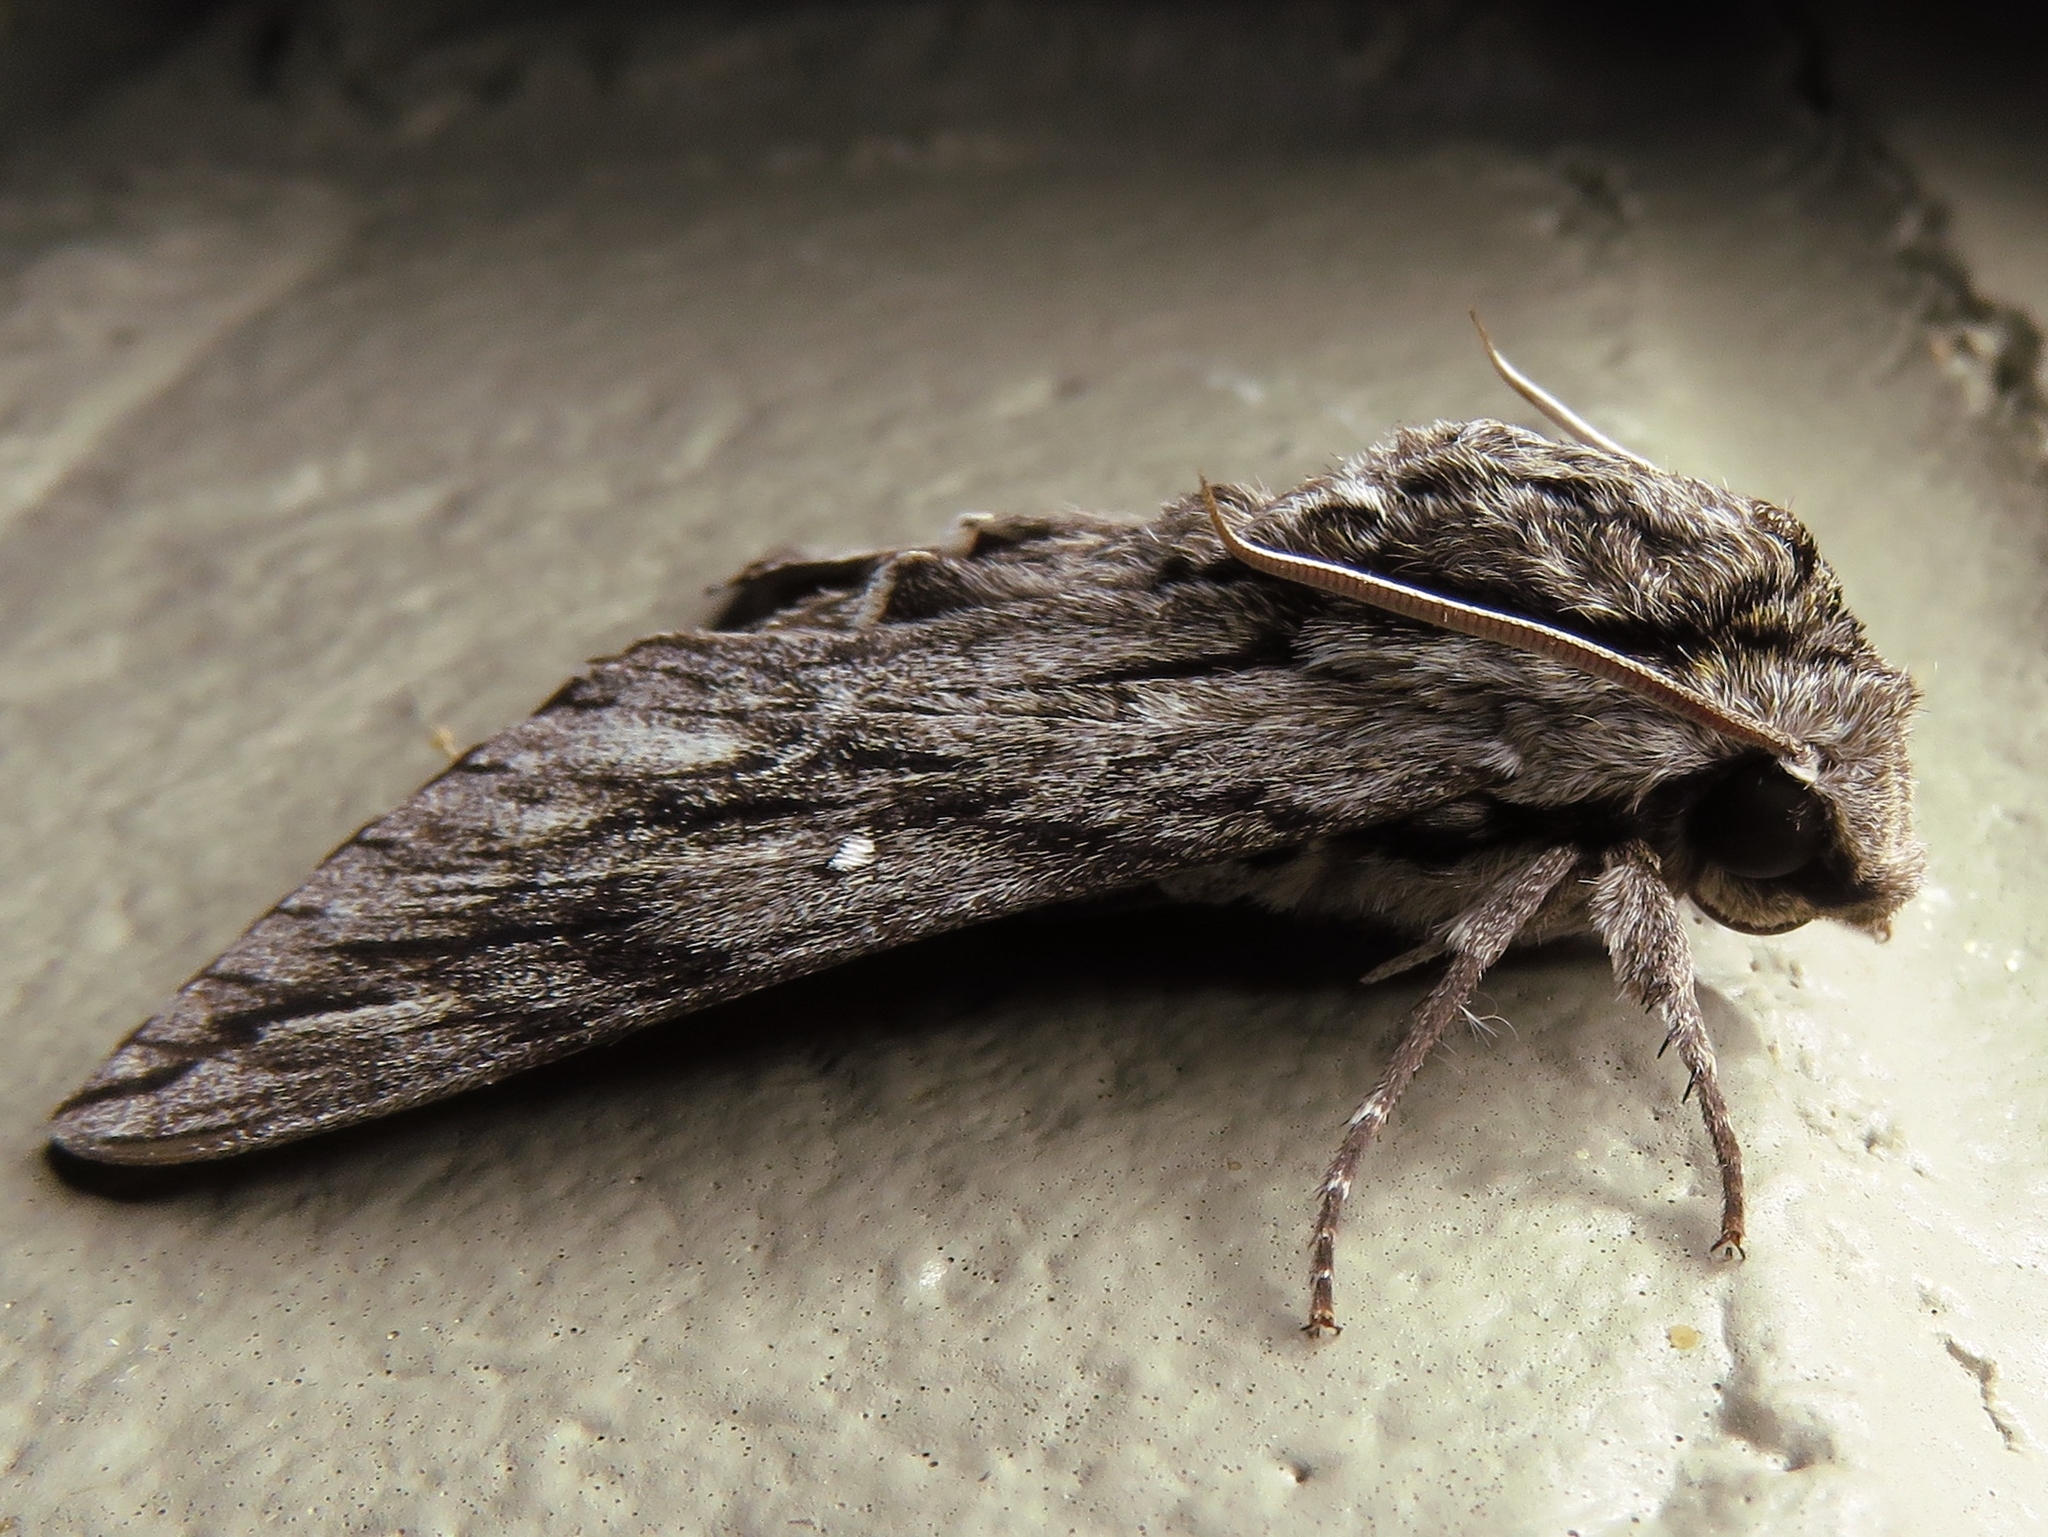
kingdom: Animalia
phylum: Arthropoda
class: Insecta
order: Lepidoptera
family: Sphingidae
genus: Paratrea
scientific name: Paratrea plebeja
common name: Plebian sphinx
